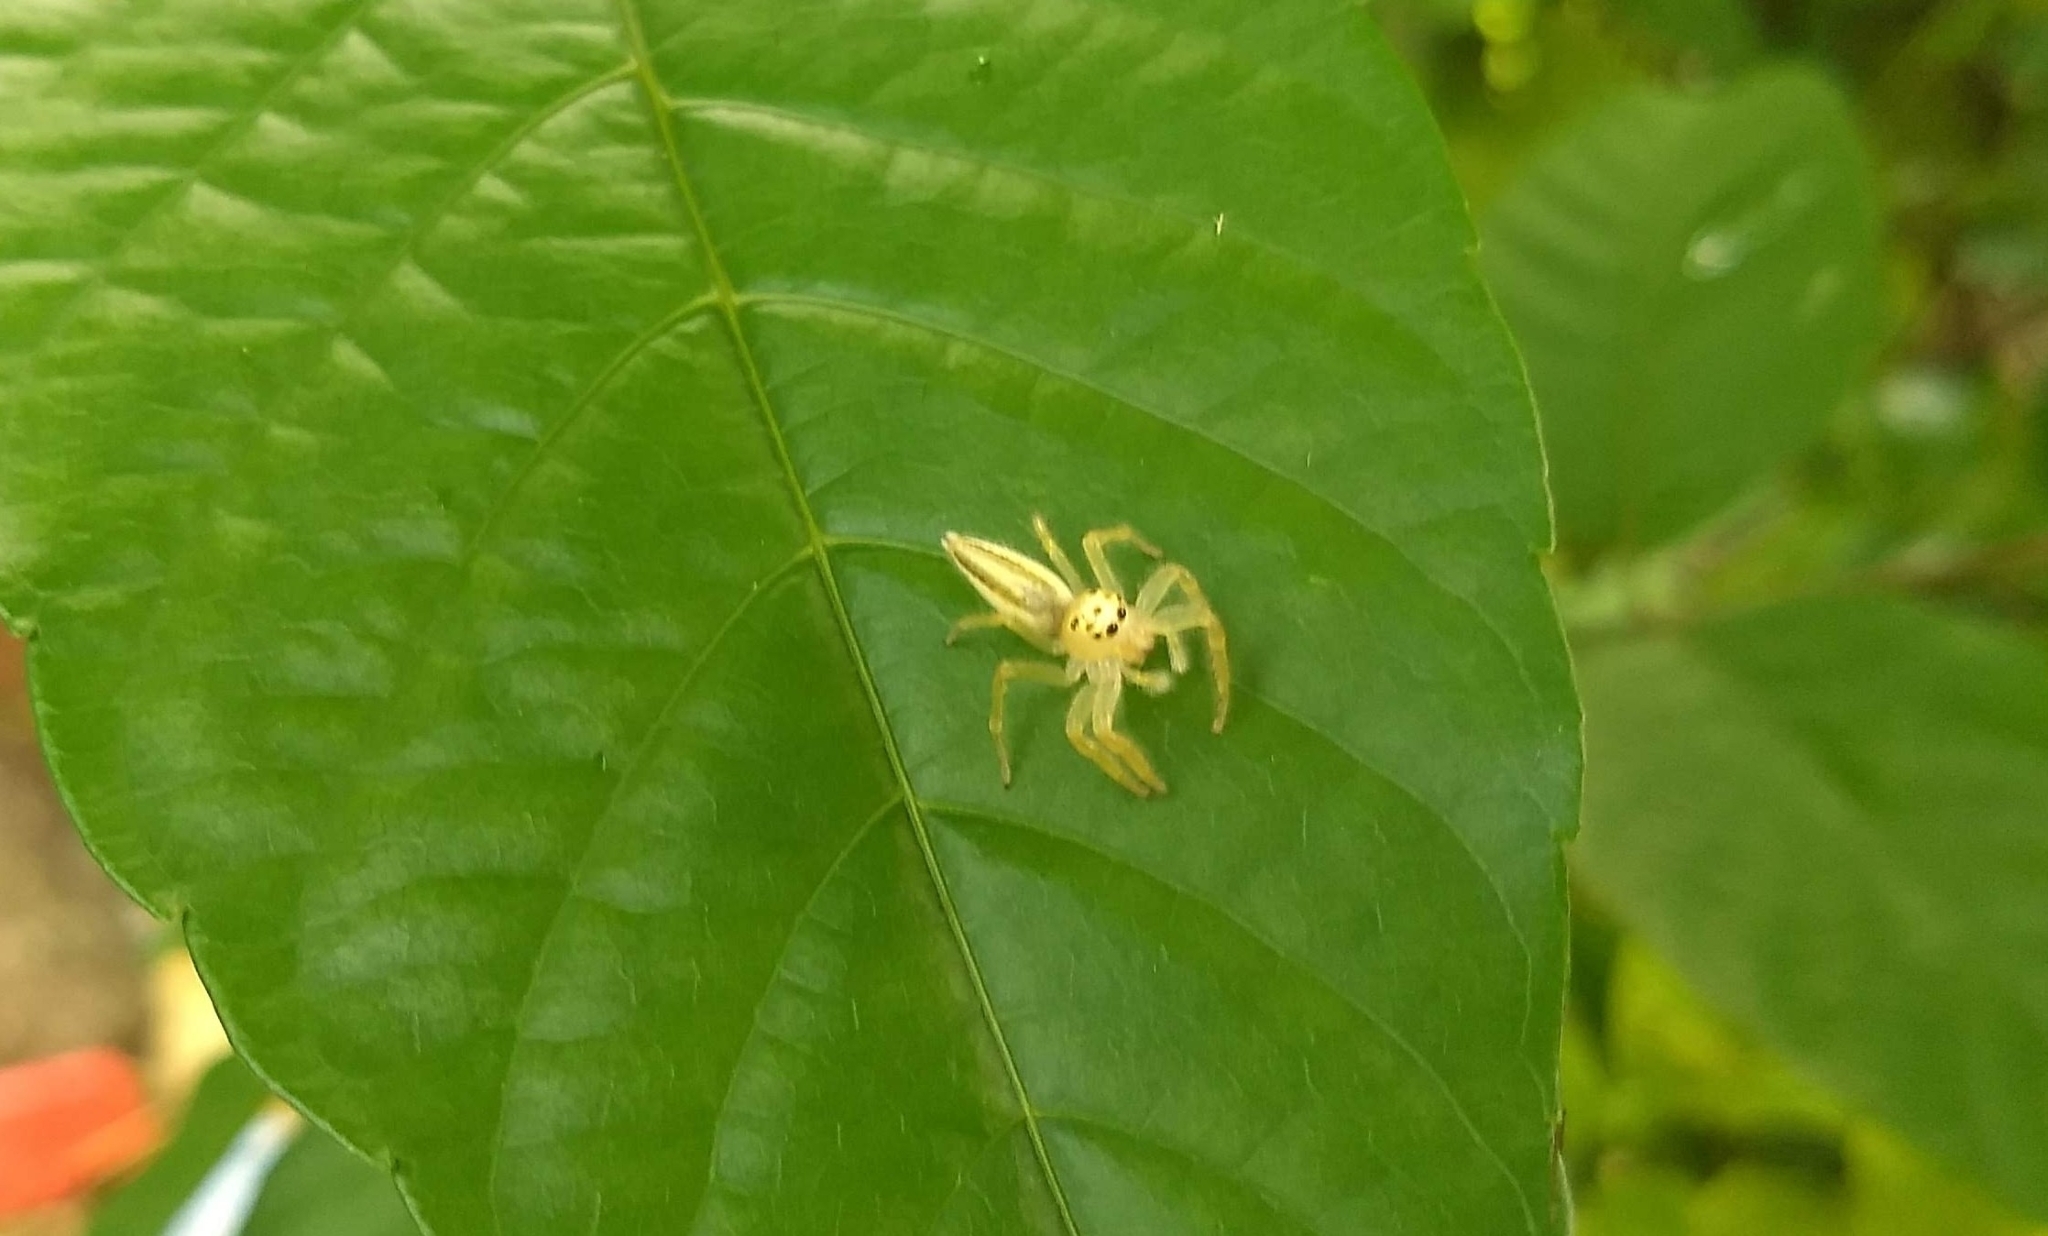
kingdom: Animalia
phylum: Arthropoda
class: Arachnida
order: Araneae
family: Salticidae
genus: Telamonia
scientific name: Telamonia dimidiata
